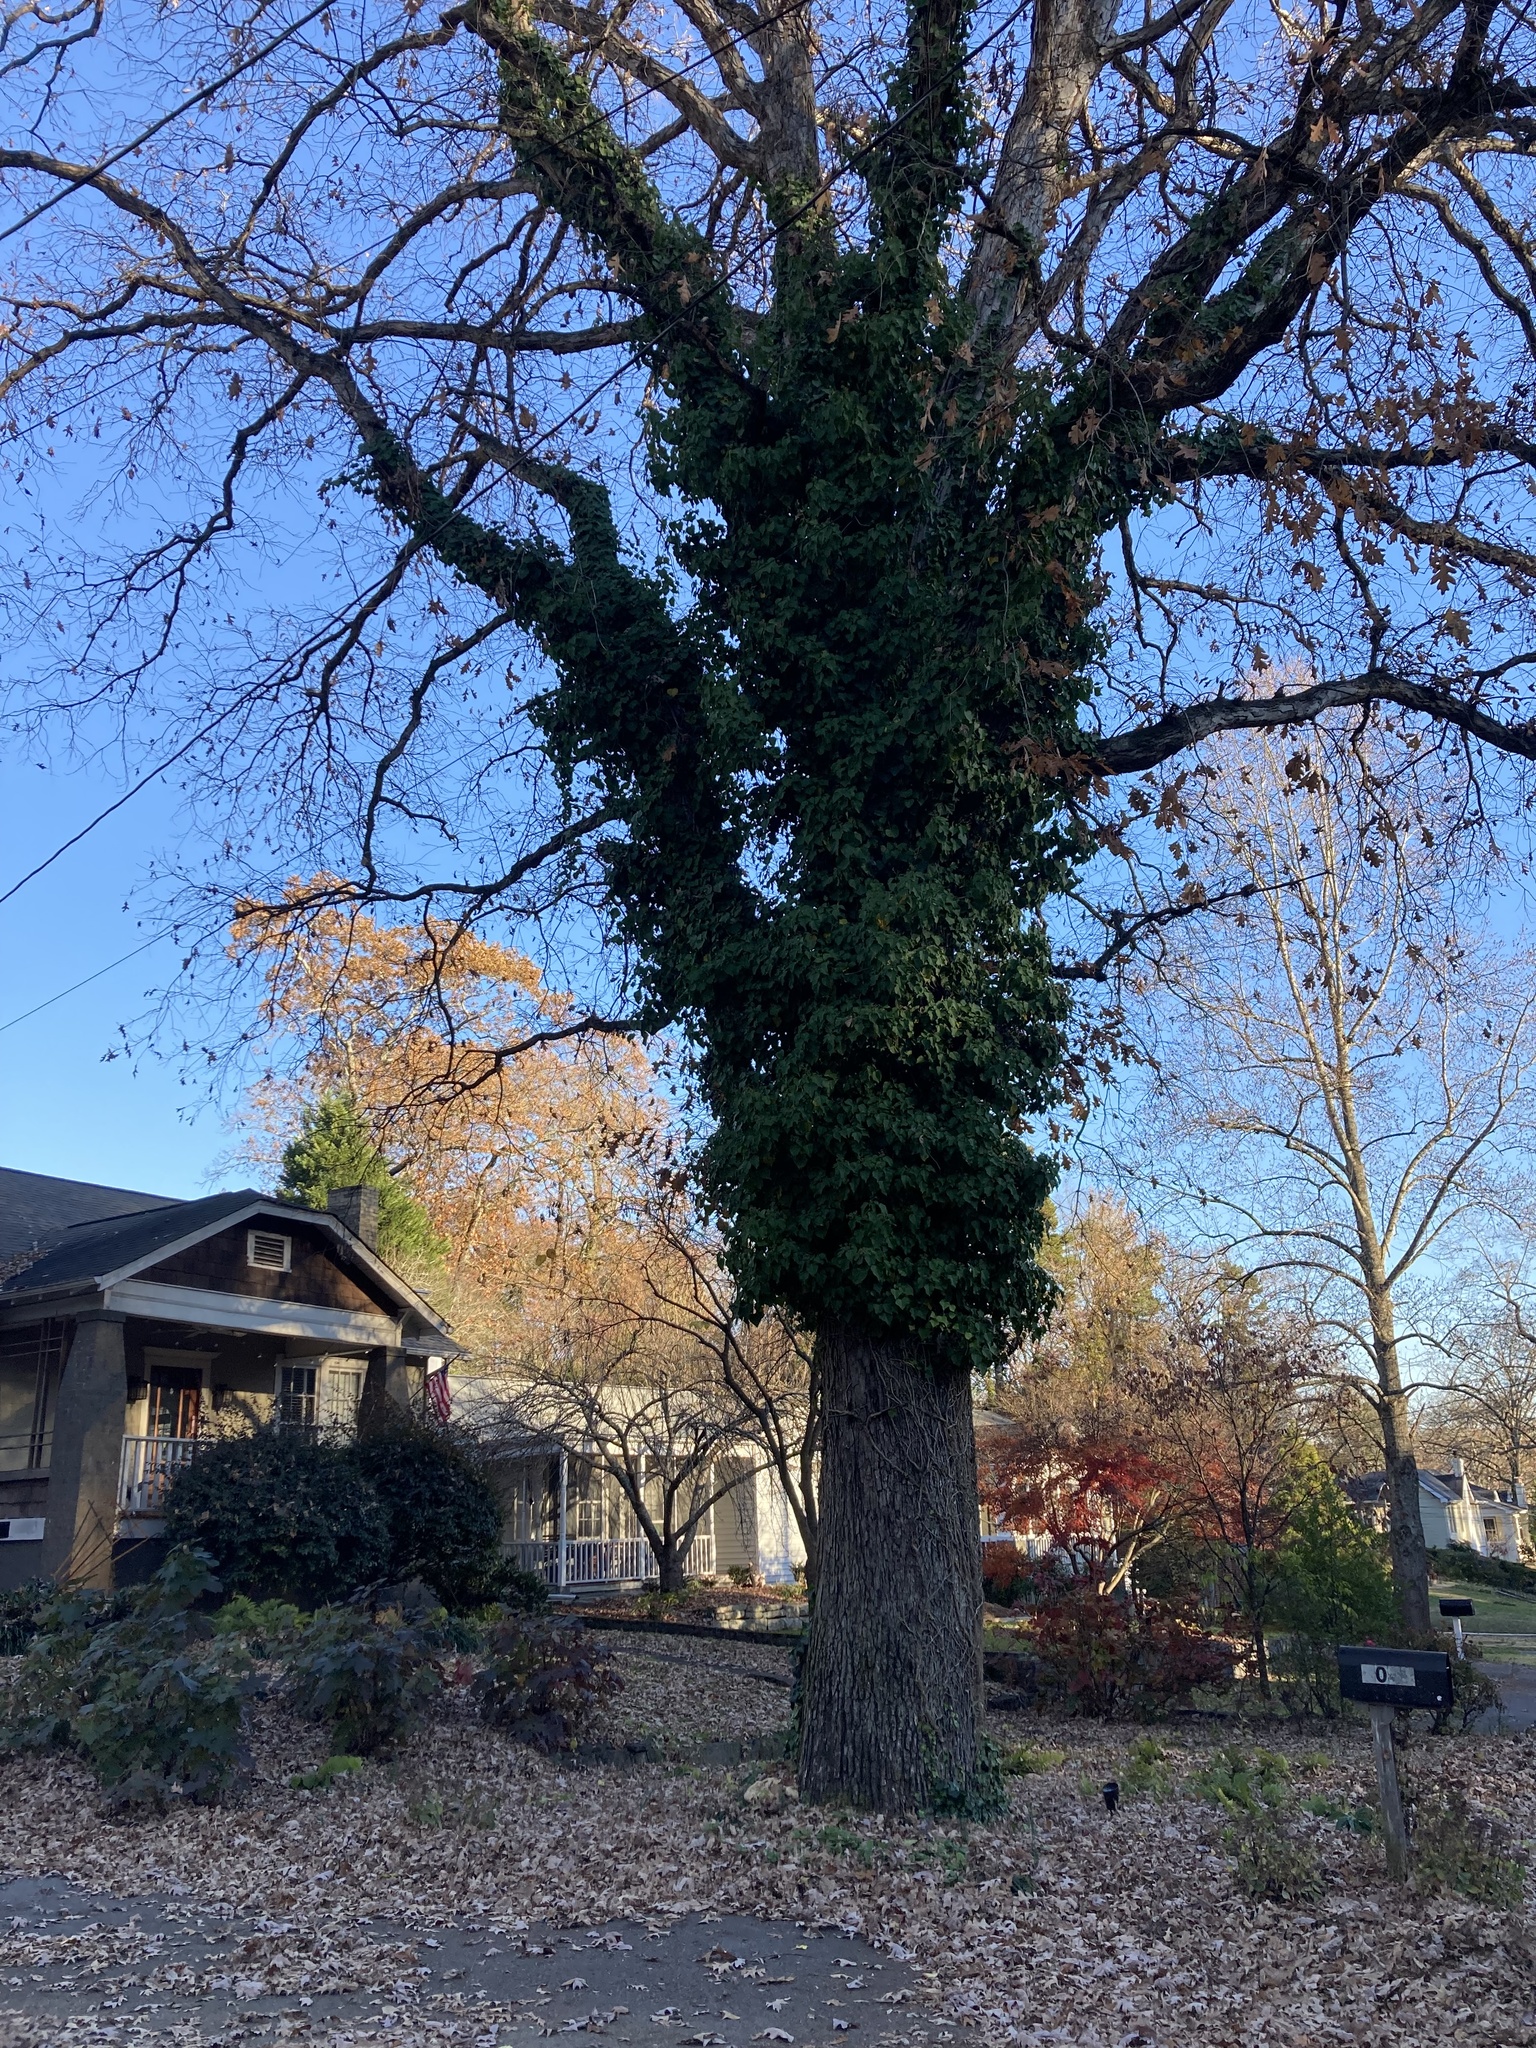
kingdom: Plantae
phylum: Tracheophyta
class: Magnoliopsida
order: Apiales
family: Araliaceae
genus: Hedera
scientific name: Hedera helix
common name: Ivy
